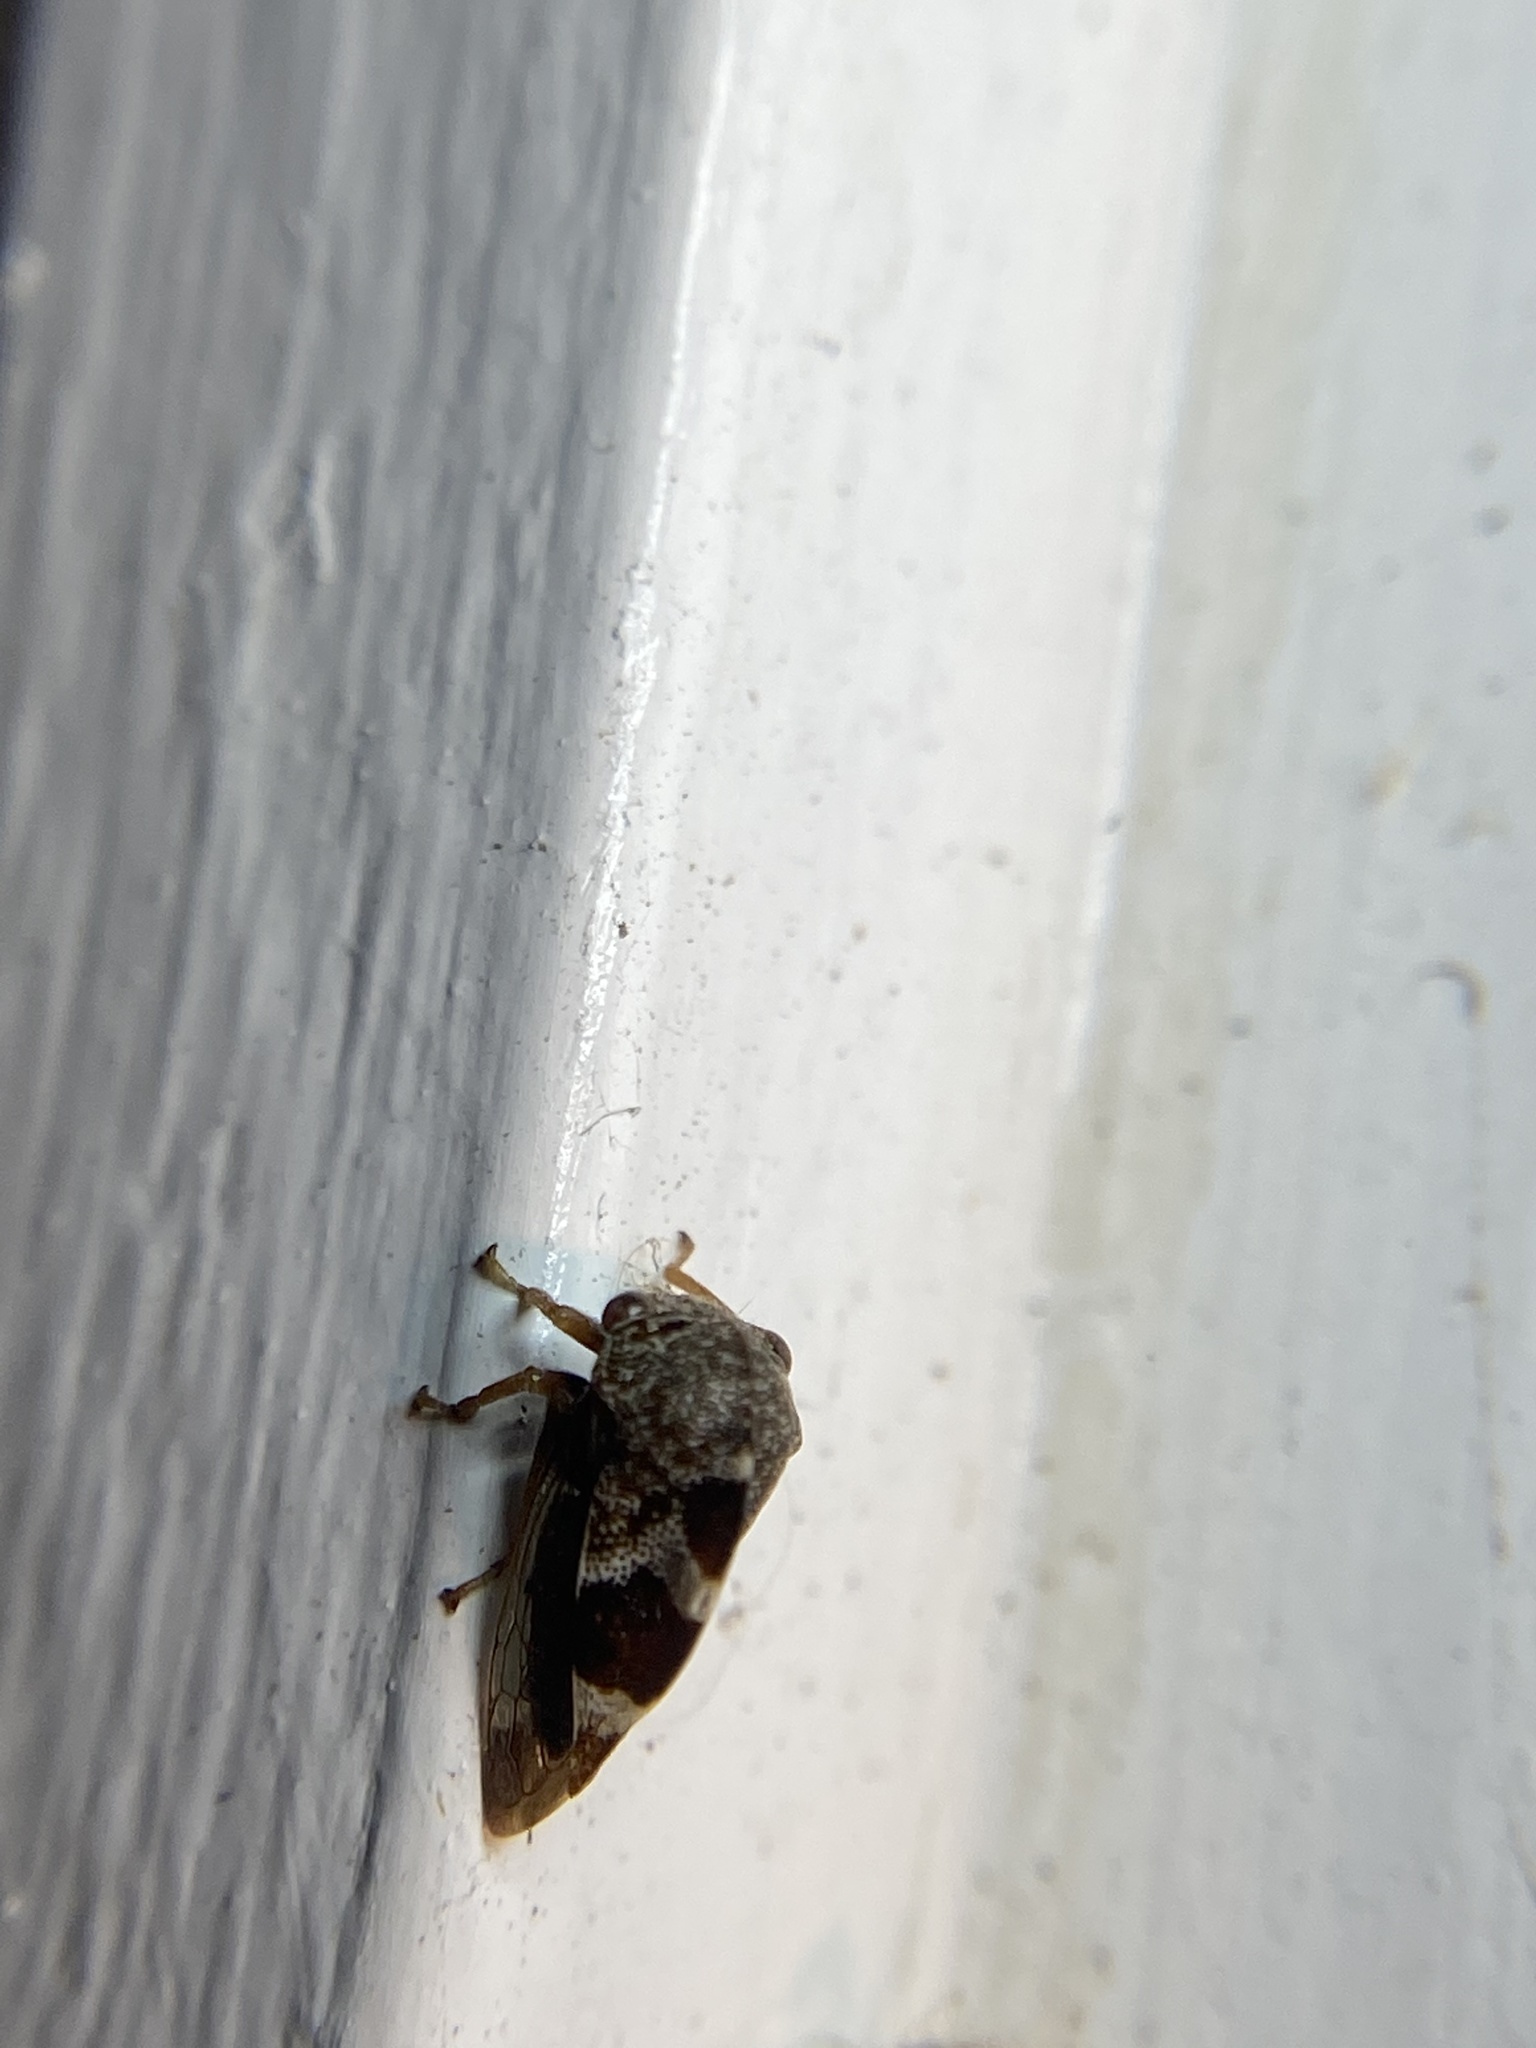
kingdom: Animalia
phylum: Arthropoda
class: Insecta
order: Hemiptera
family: Membracidae
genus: Cyrtolobus
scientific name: Cyrtolobus tuberosa
